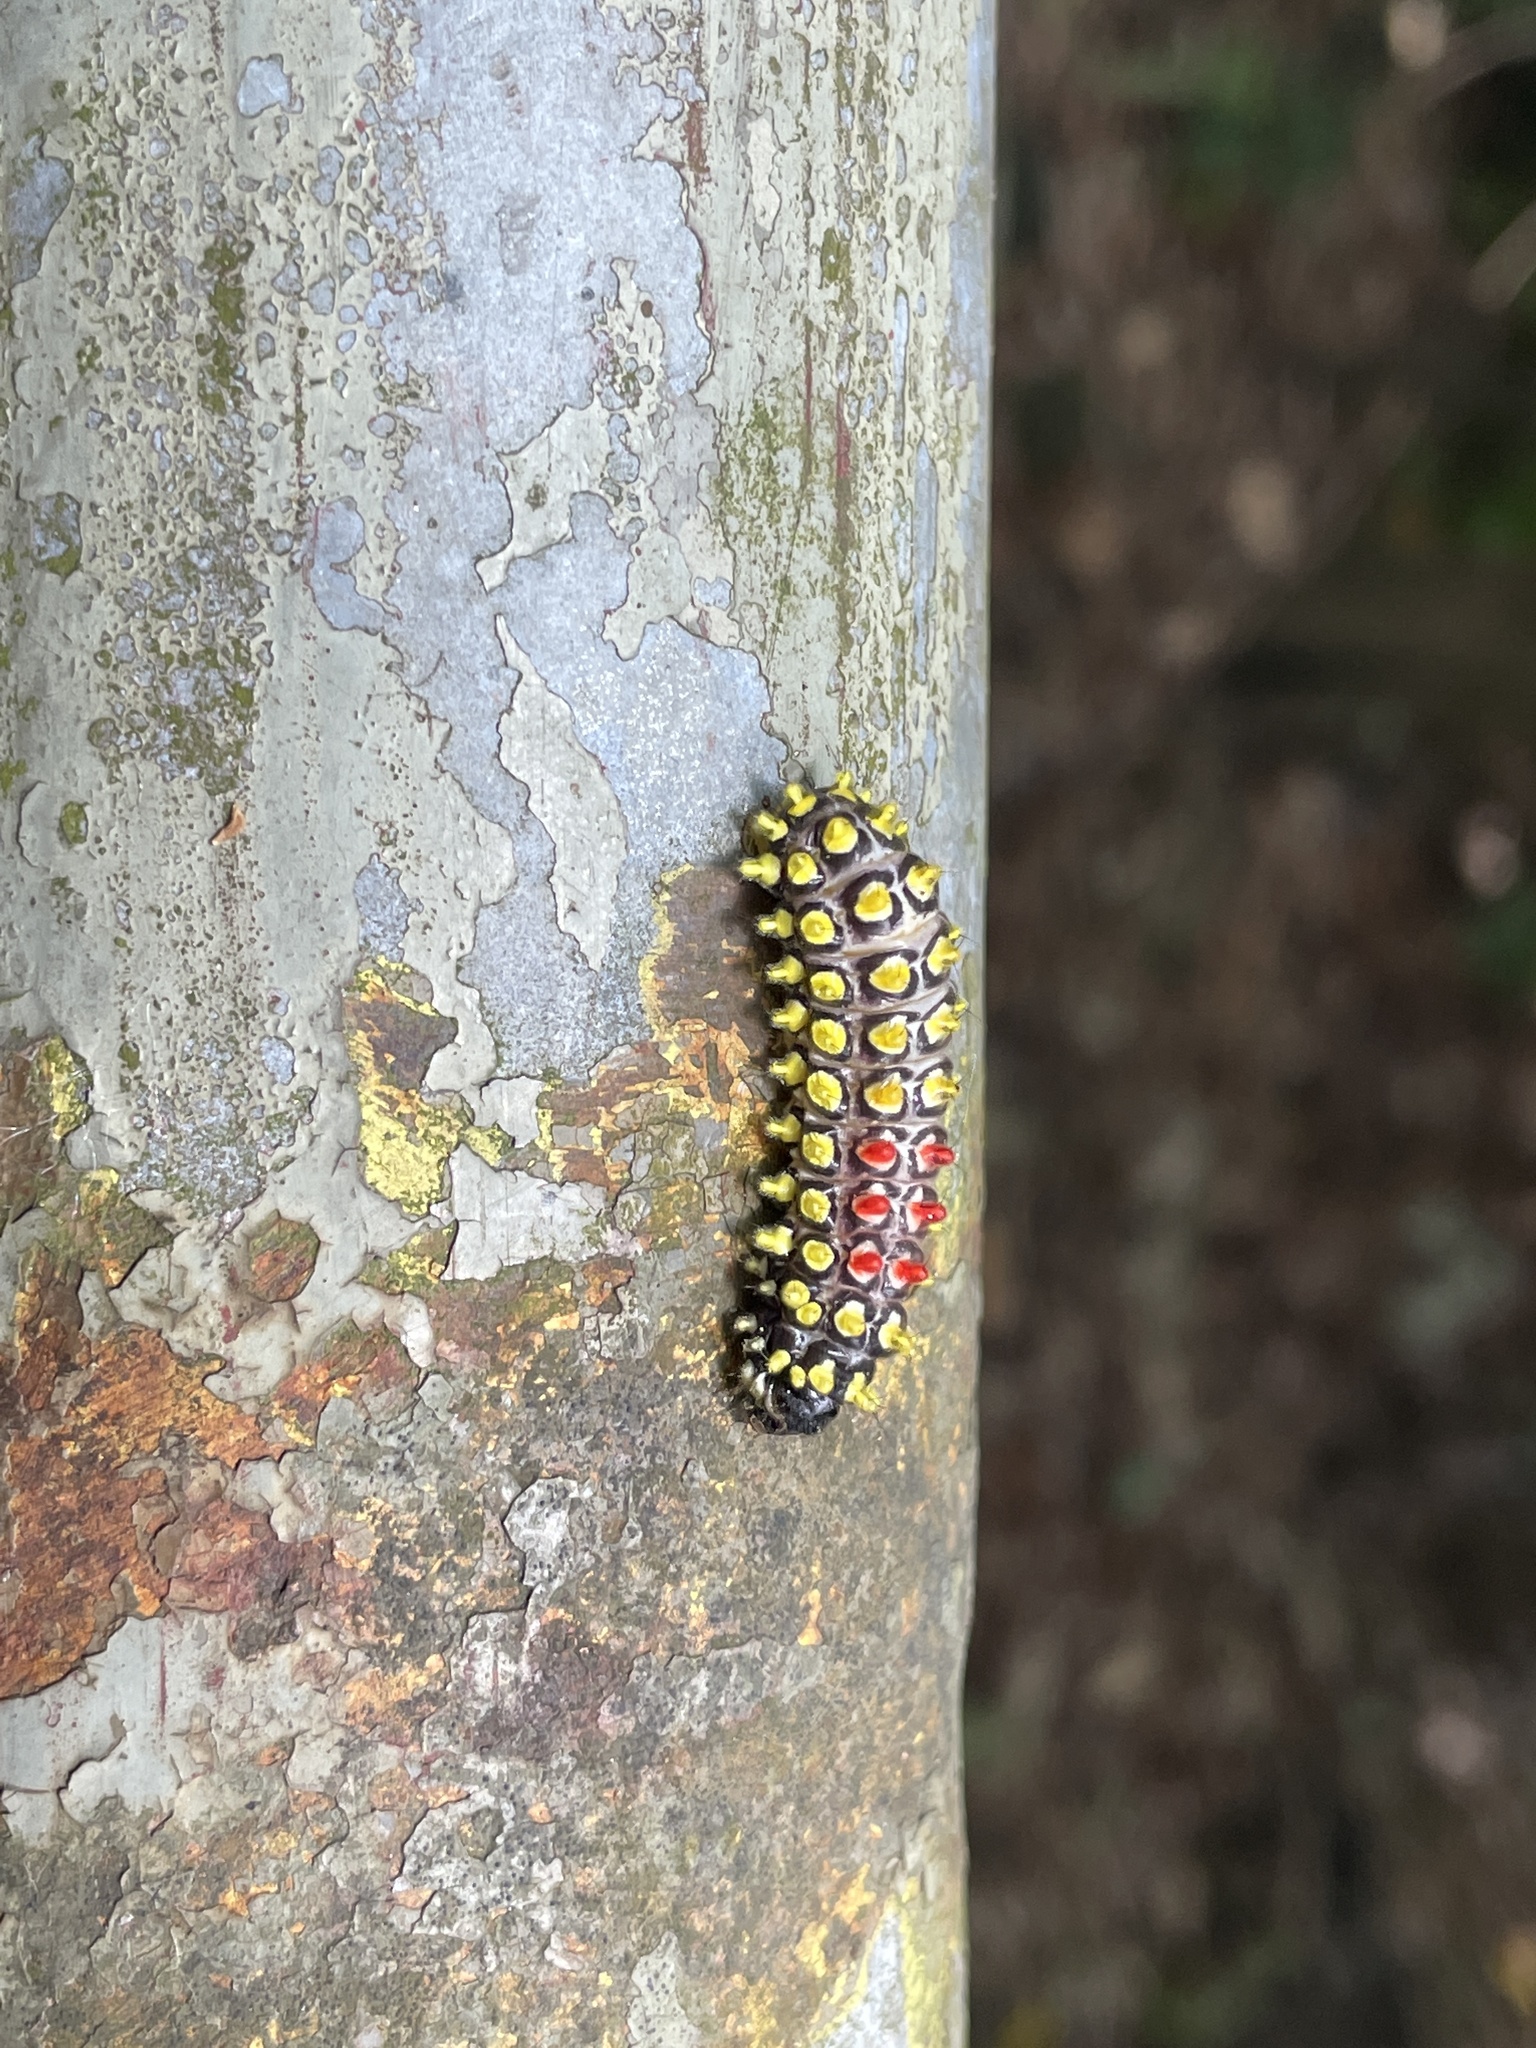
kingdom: Animalia
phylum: Arthropoda
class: Insecta
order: Lepidoptera
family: Zygaenidae
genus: Cyclosia
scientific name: Cyclosia papilionaris
